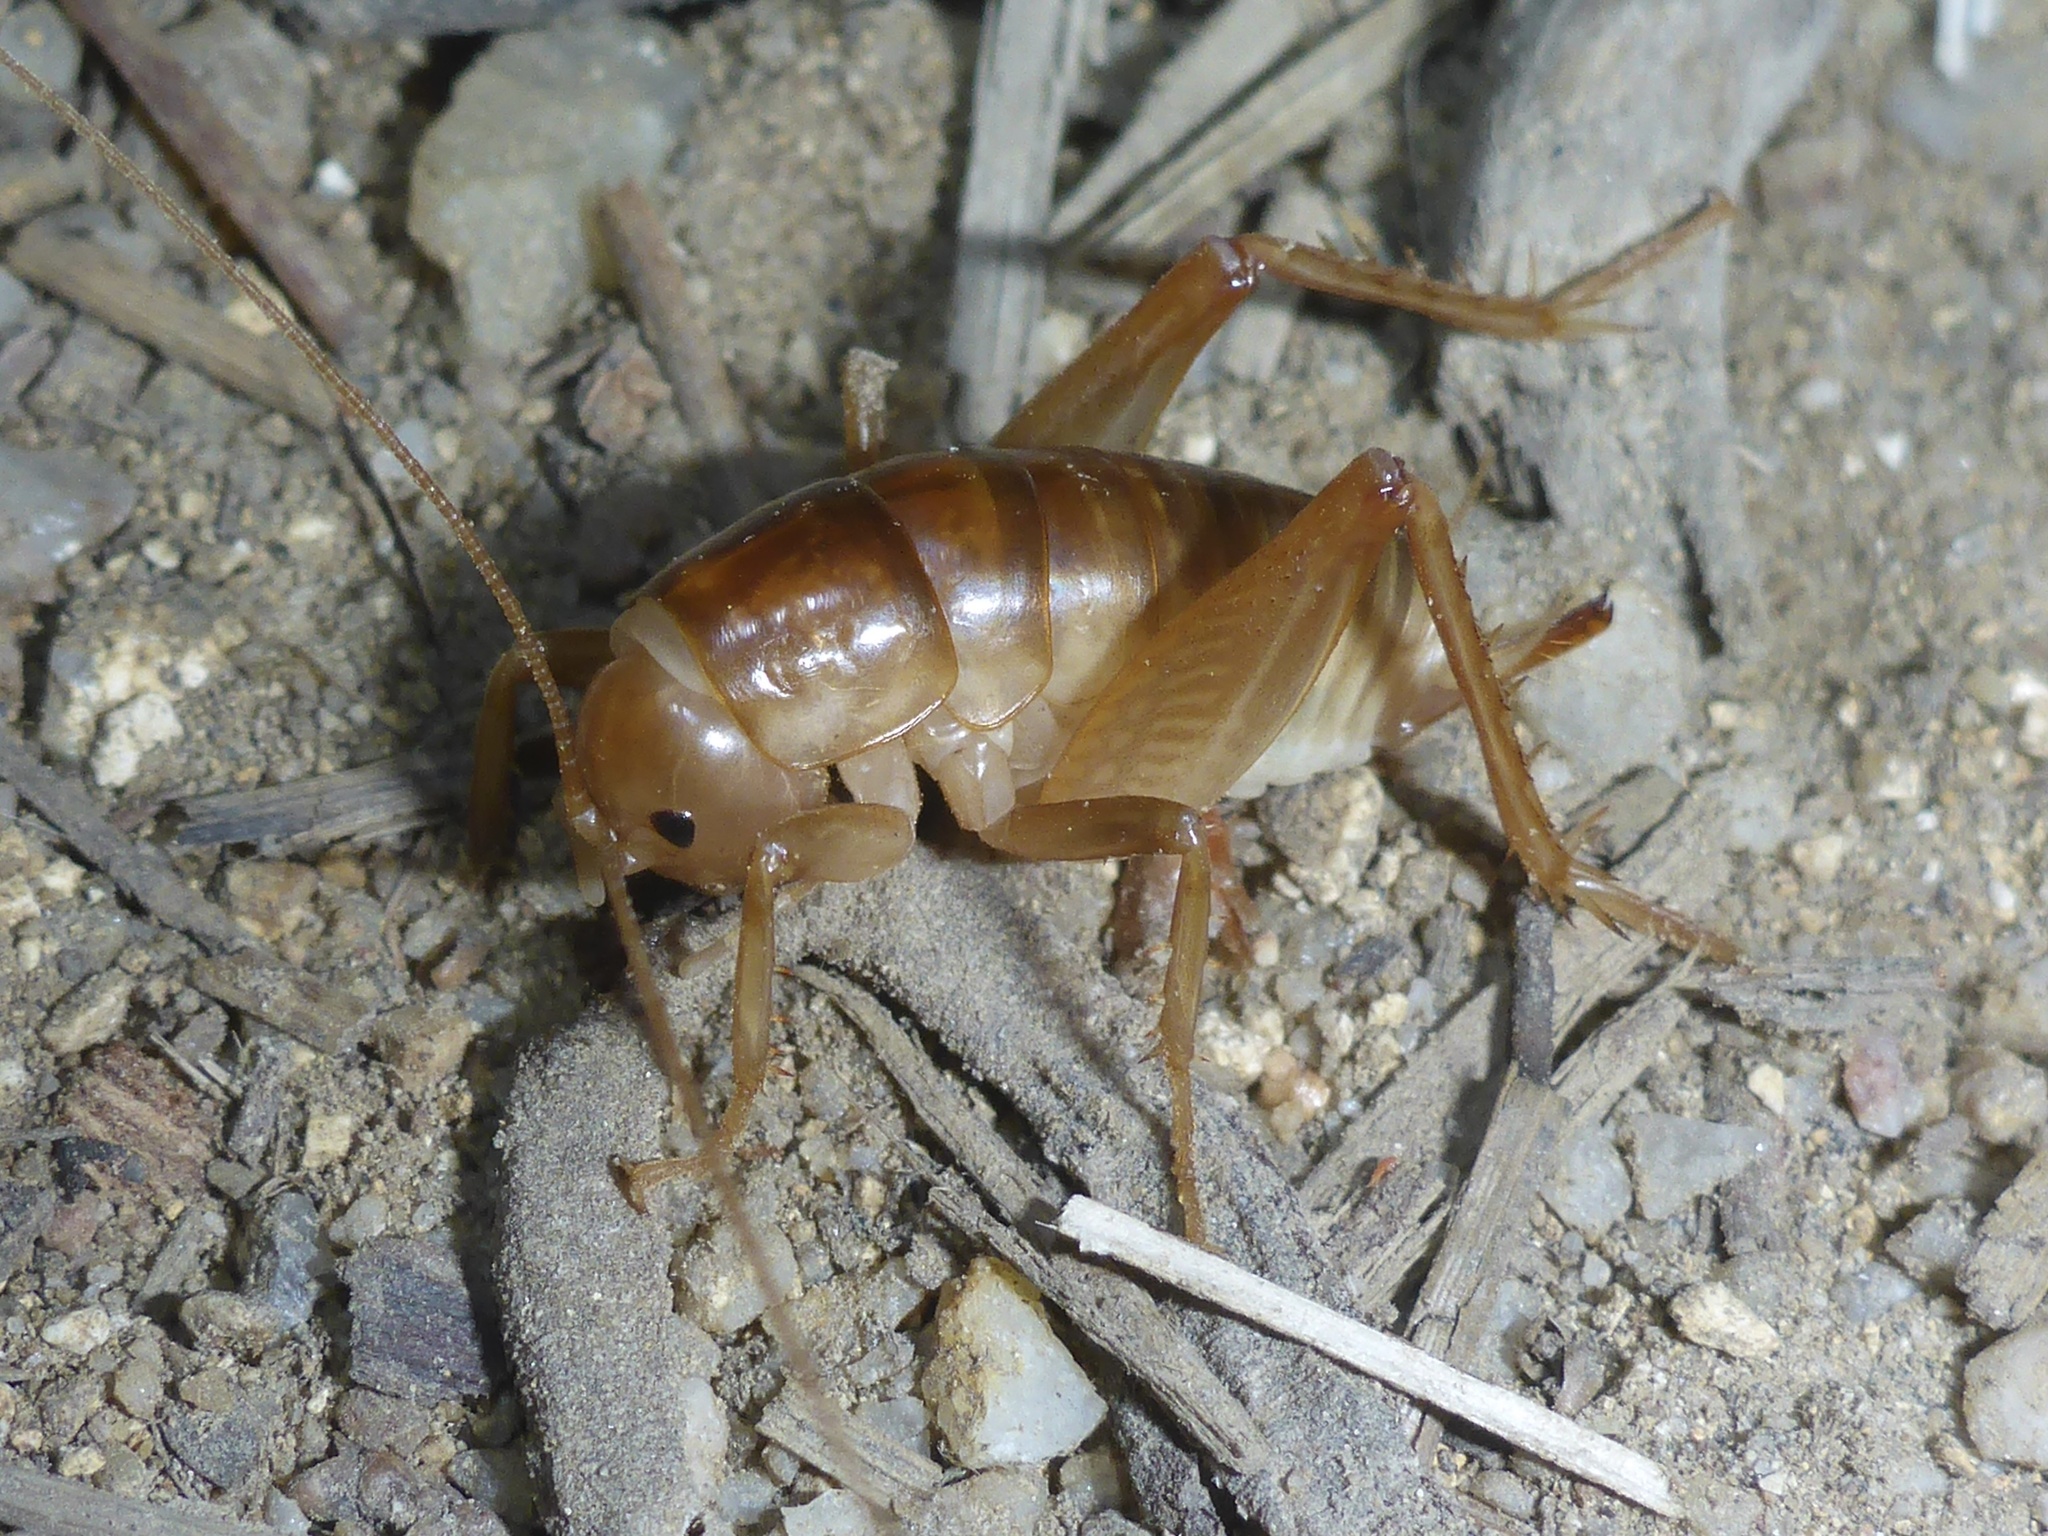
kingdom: Animalia
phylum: Arthropoda
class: Insecta
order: Orthoptera
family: Rhaphidophoridae
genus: Ceuthophilus
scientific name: Ceuthophilus californianus
